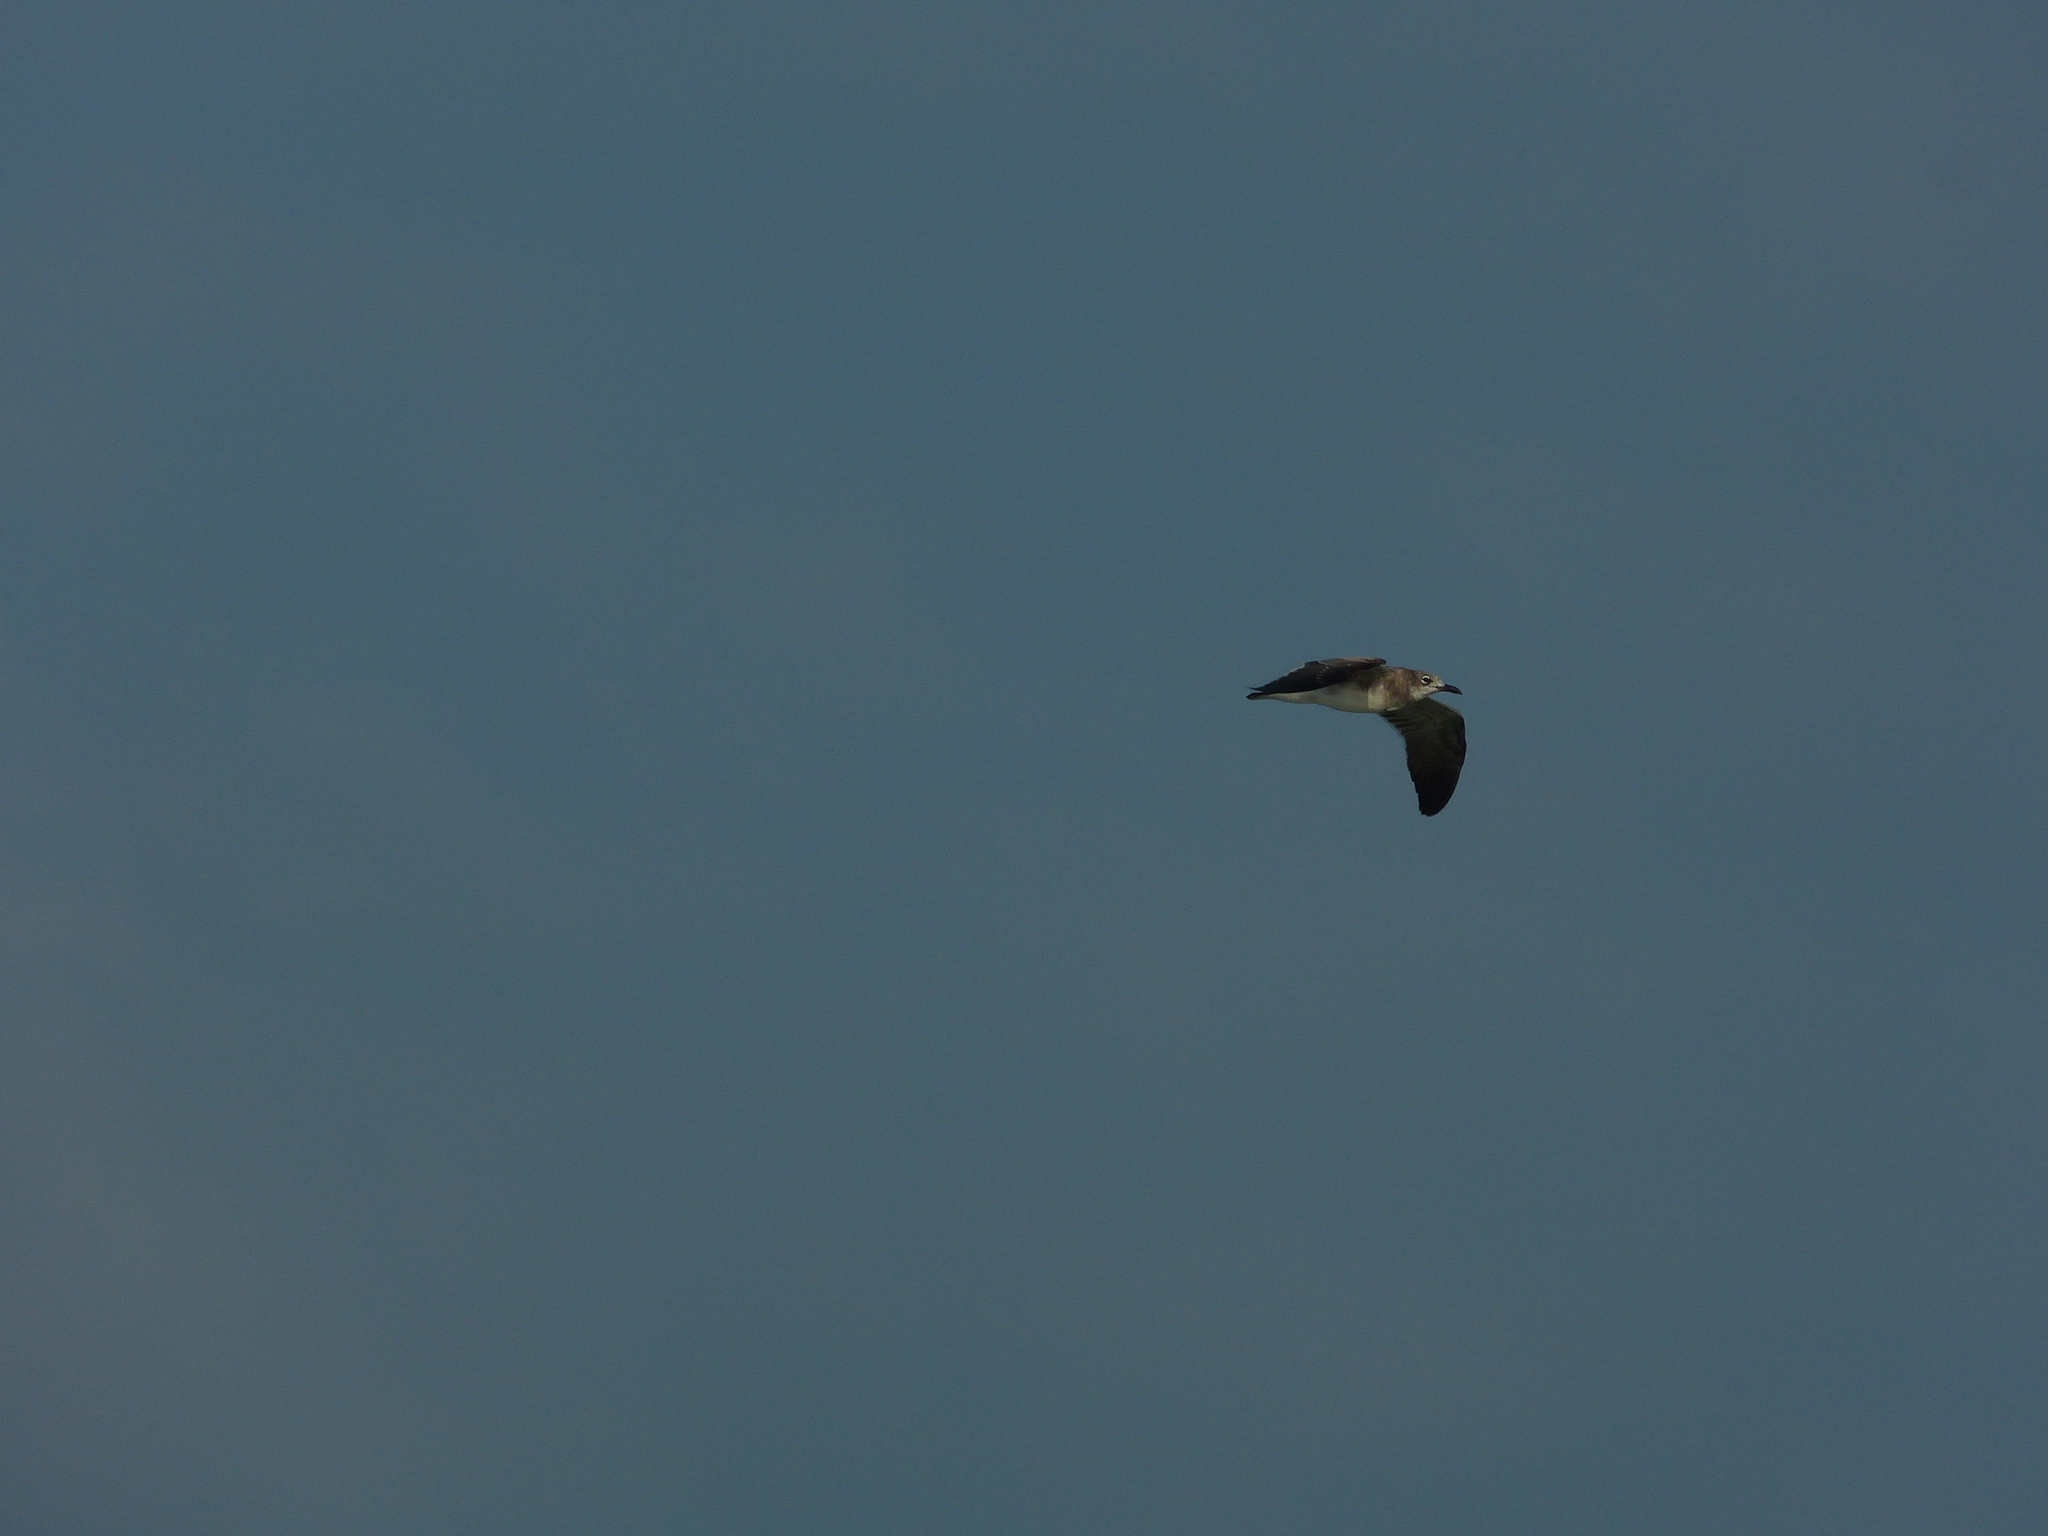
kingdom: Animalia
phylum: Chordata
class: Aves
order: Charadriiformes
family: Laridae
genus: Leucophaeus
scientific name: Leucophaeus atricilla
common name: Laughing gull
